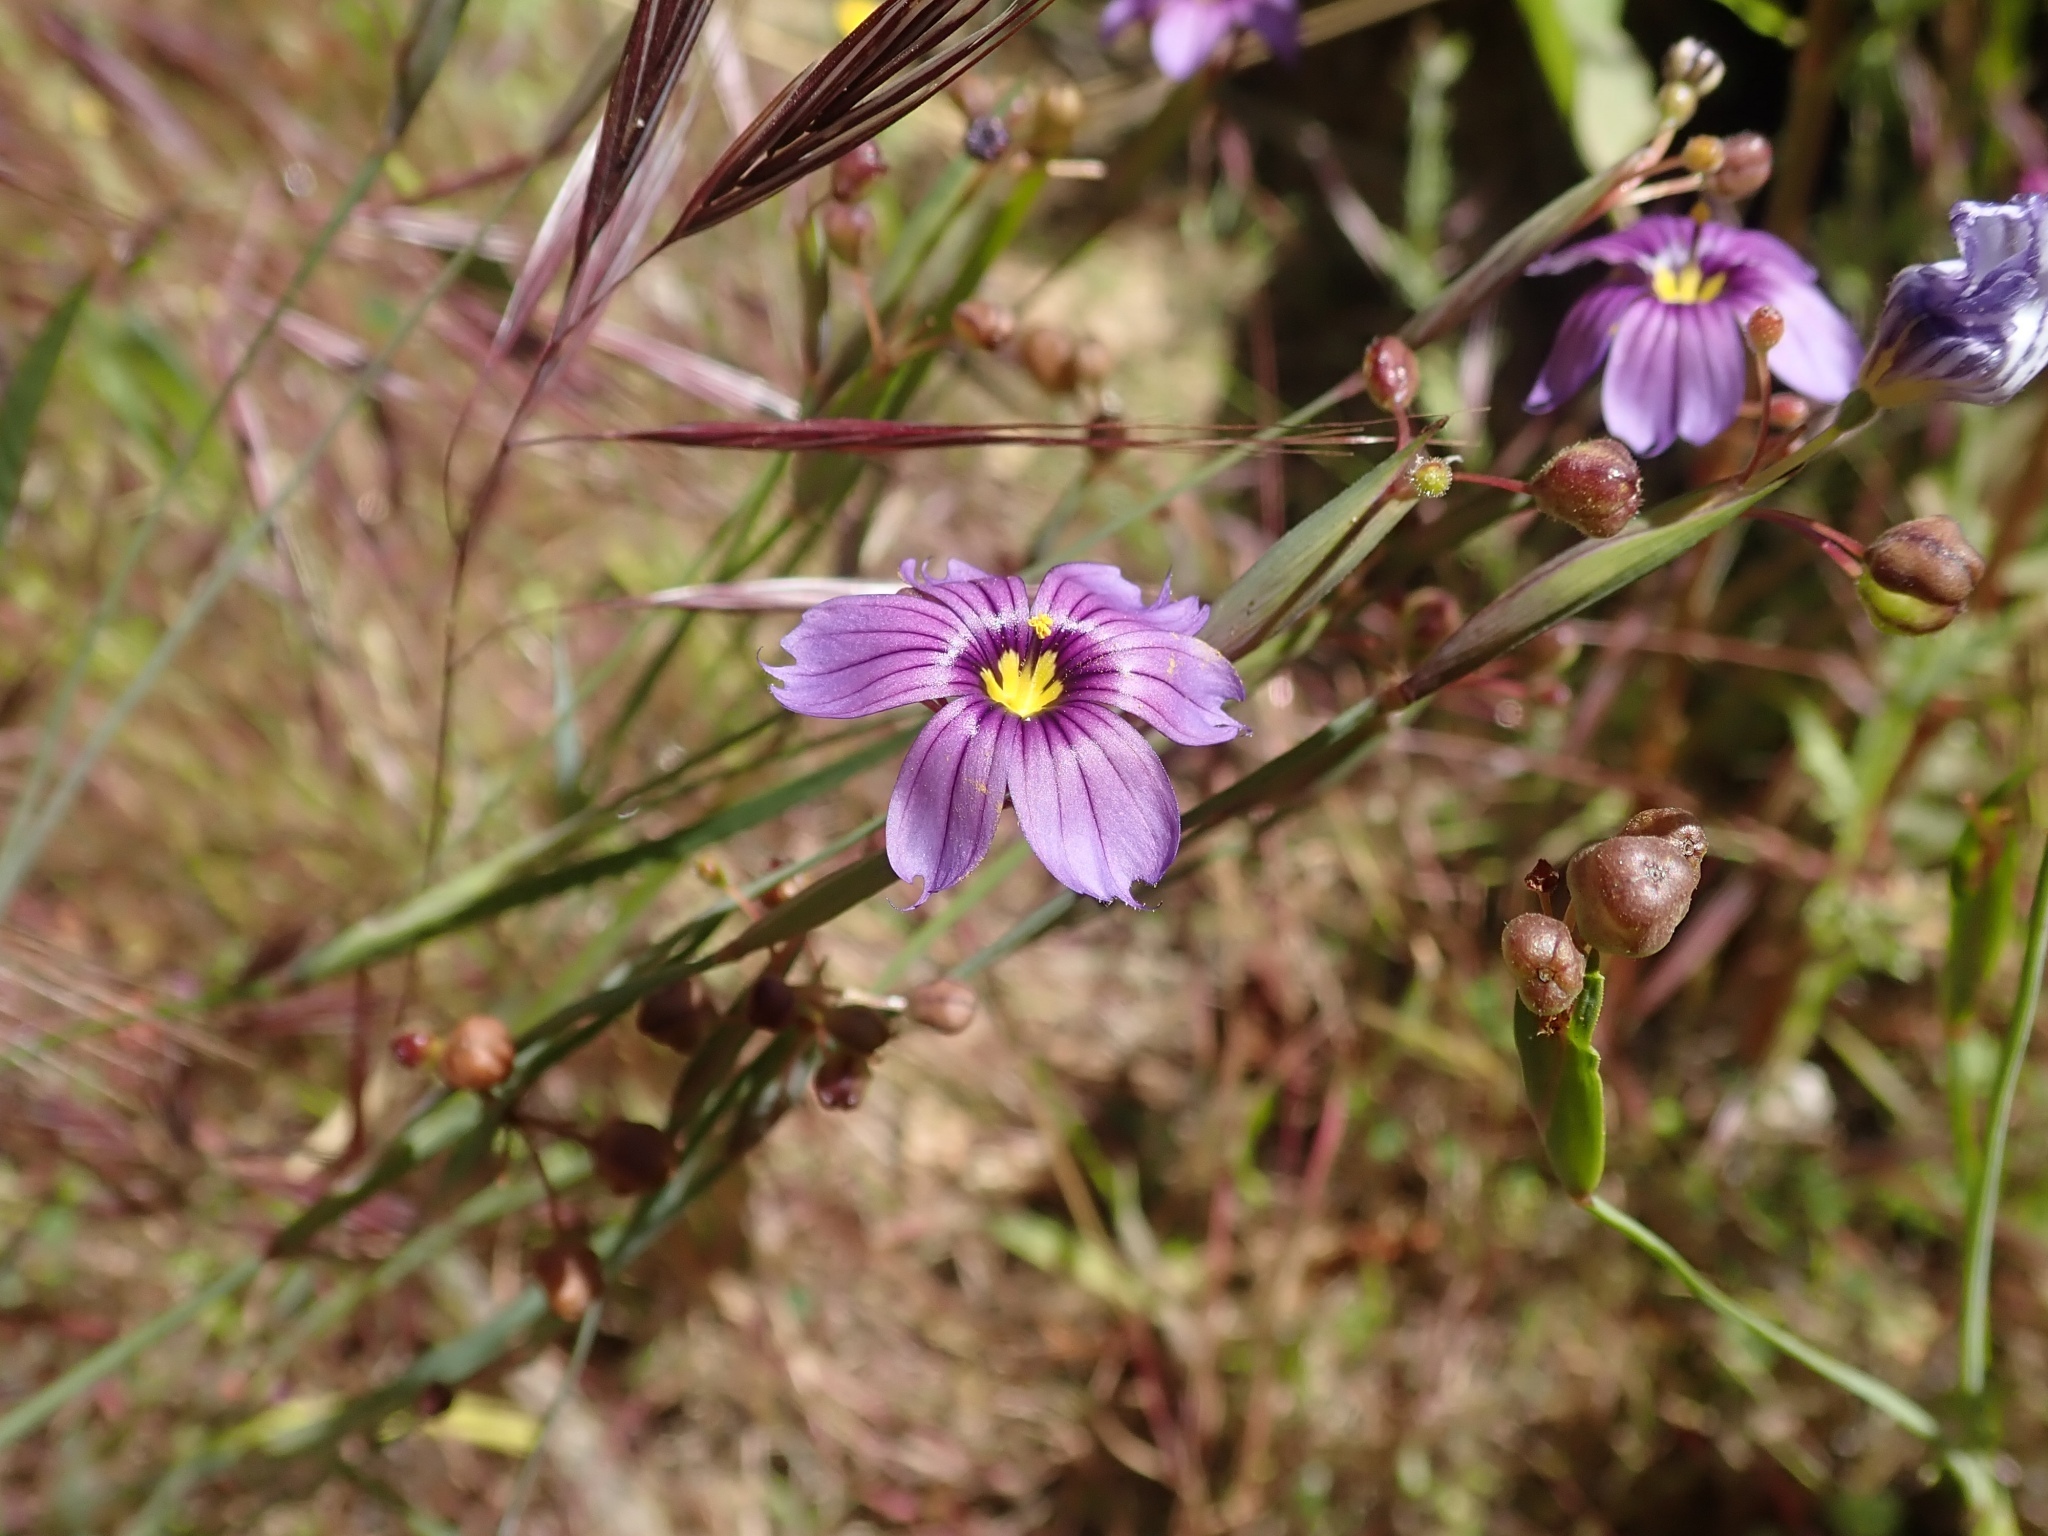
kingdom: Plantae
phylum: Tracheophyta
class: Liliopsida
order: Asparagales
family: Iridaceae
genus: Sisyrinchium
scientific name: Sisyrinchium bellum
